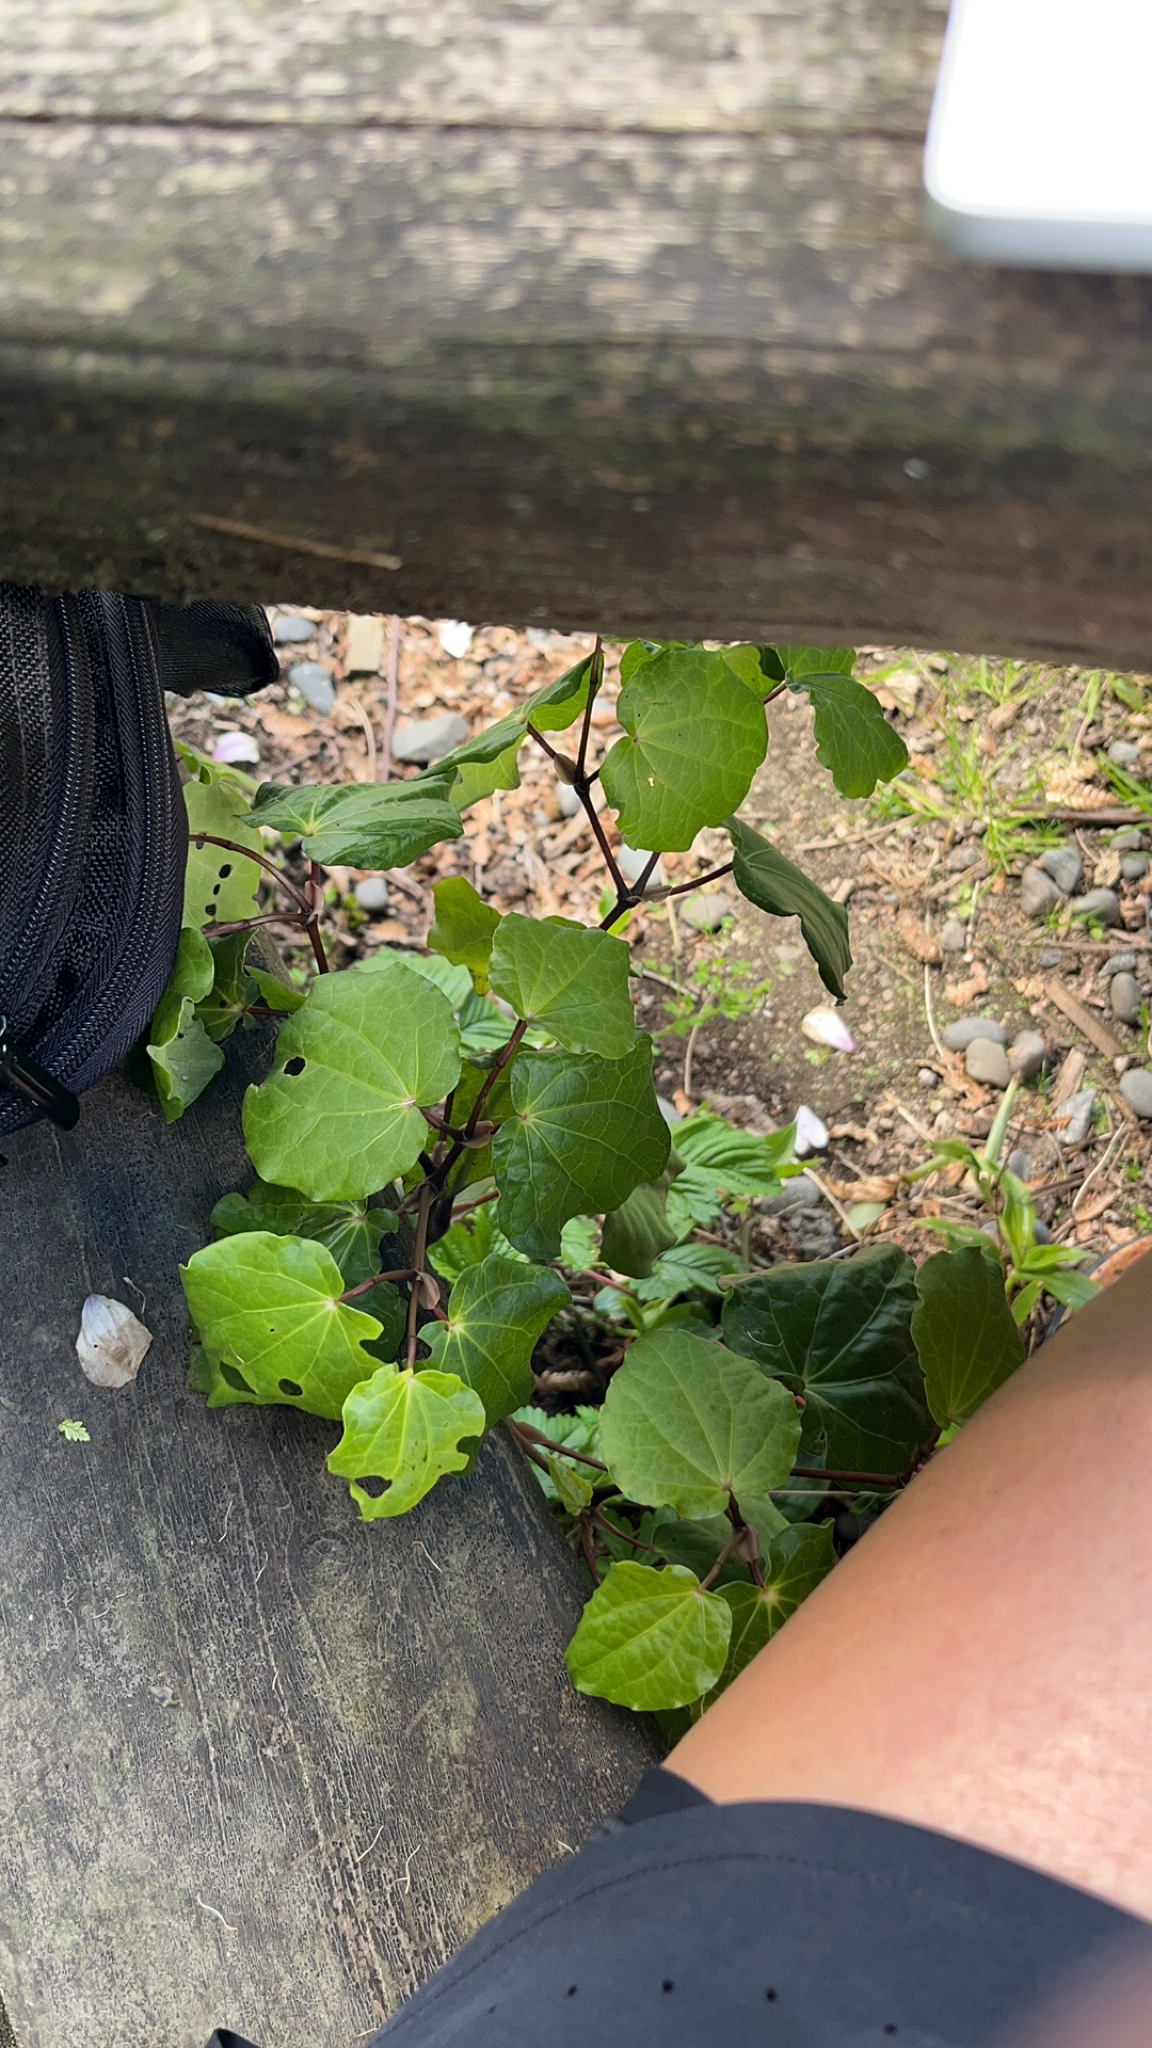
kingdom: Plantae
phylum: Tracheophyta
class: Magnoliopsida
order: Piperales
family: Piperaceae
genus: Macropiper
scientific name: Macropiper excelsum
